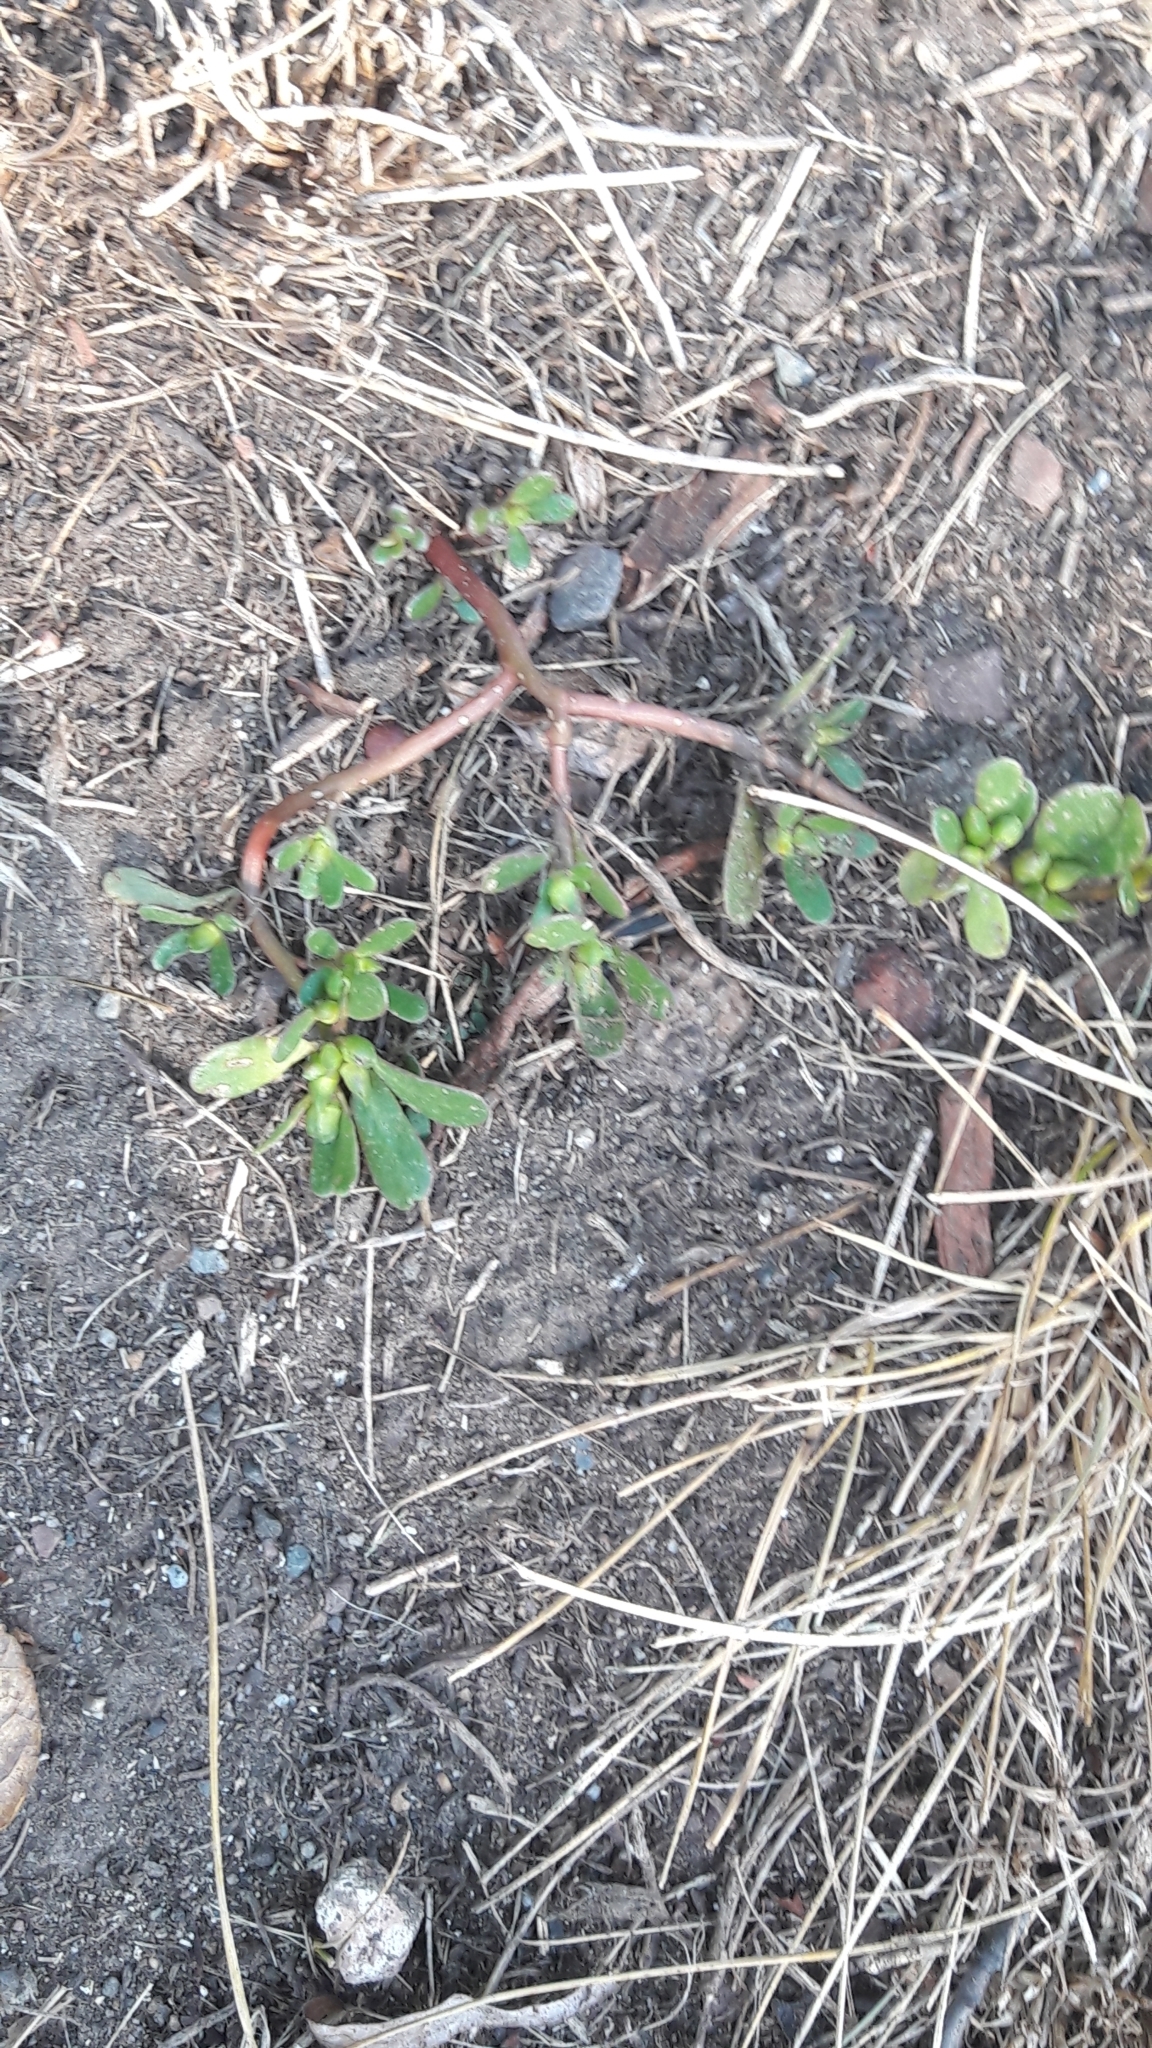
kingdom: Plantae
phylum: Tracheophyta
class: Magnoliopsida
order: Caryophyllales
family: Portulacaceae
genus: Portulaca
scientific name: Portulaca oleracea
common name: Common purslane
